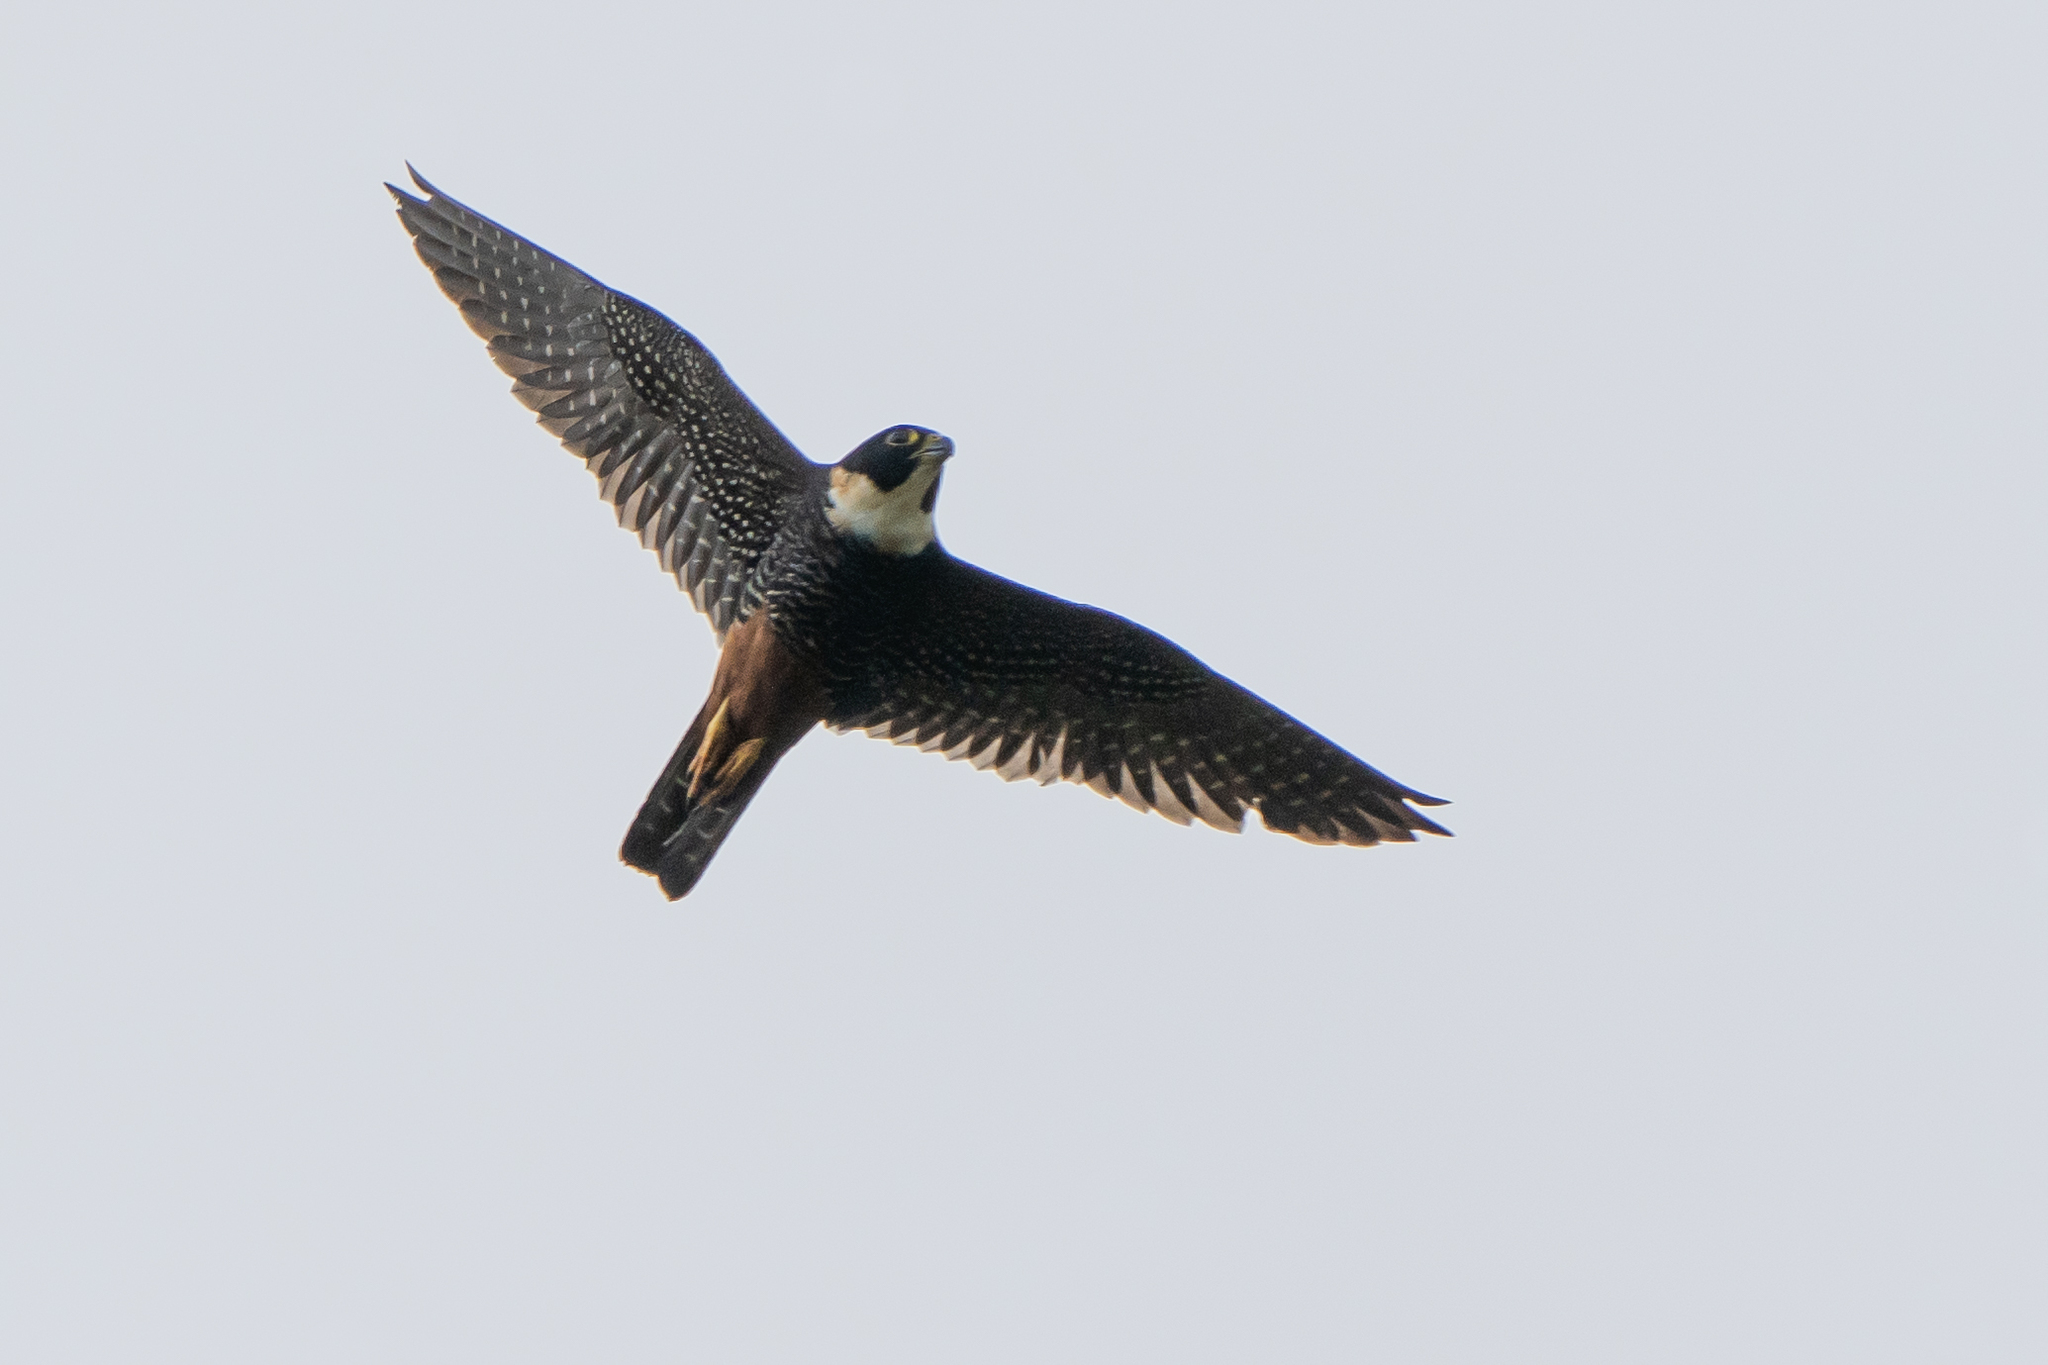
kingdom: Animalia
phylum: Chordata
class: Aves
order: Falconiformes
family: Falconidae
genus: Falco
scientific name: Falco rufigularis
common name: Bat falcon
